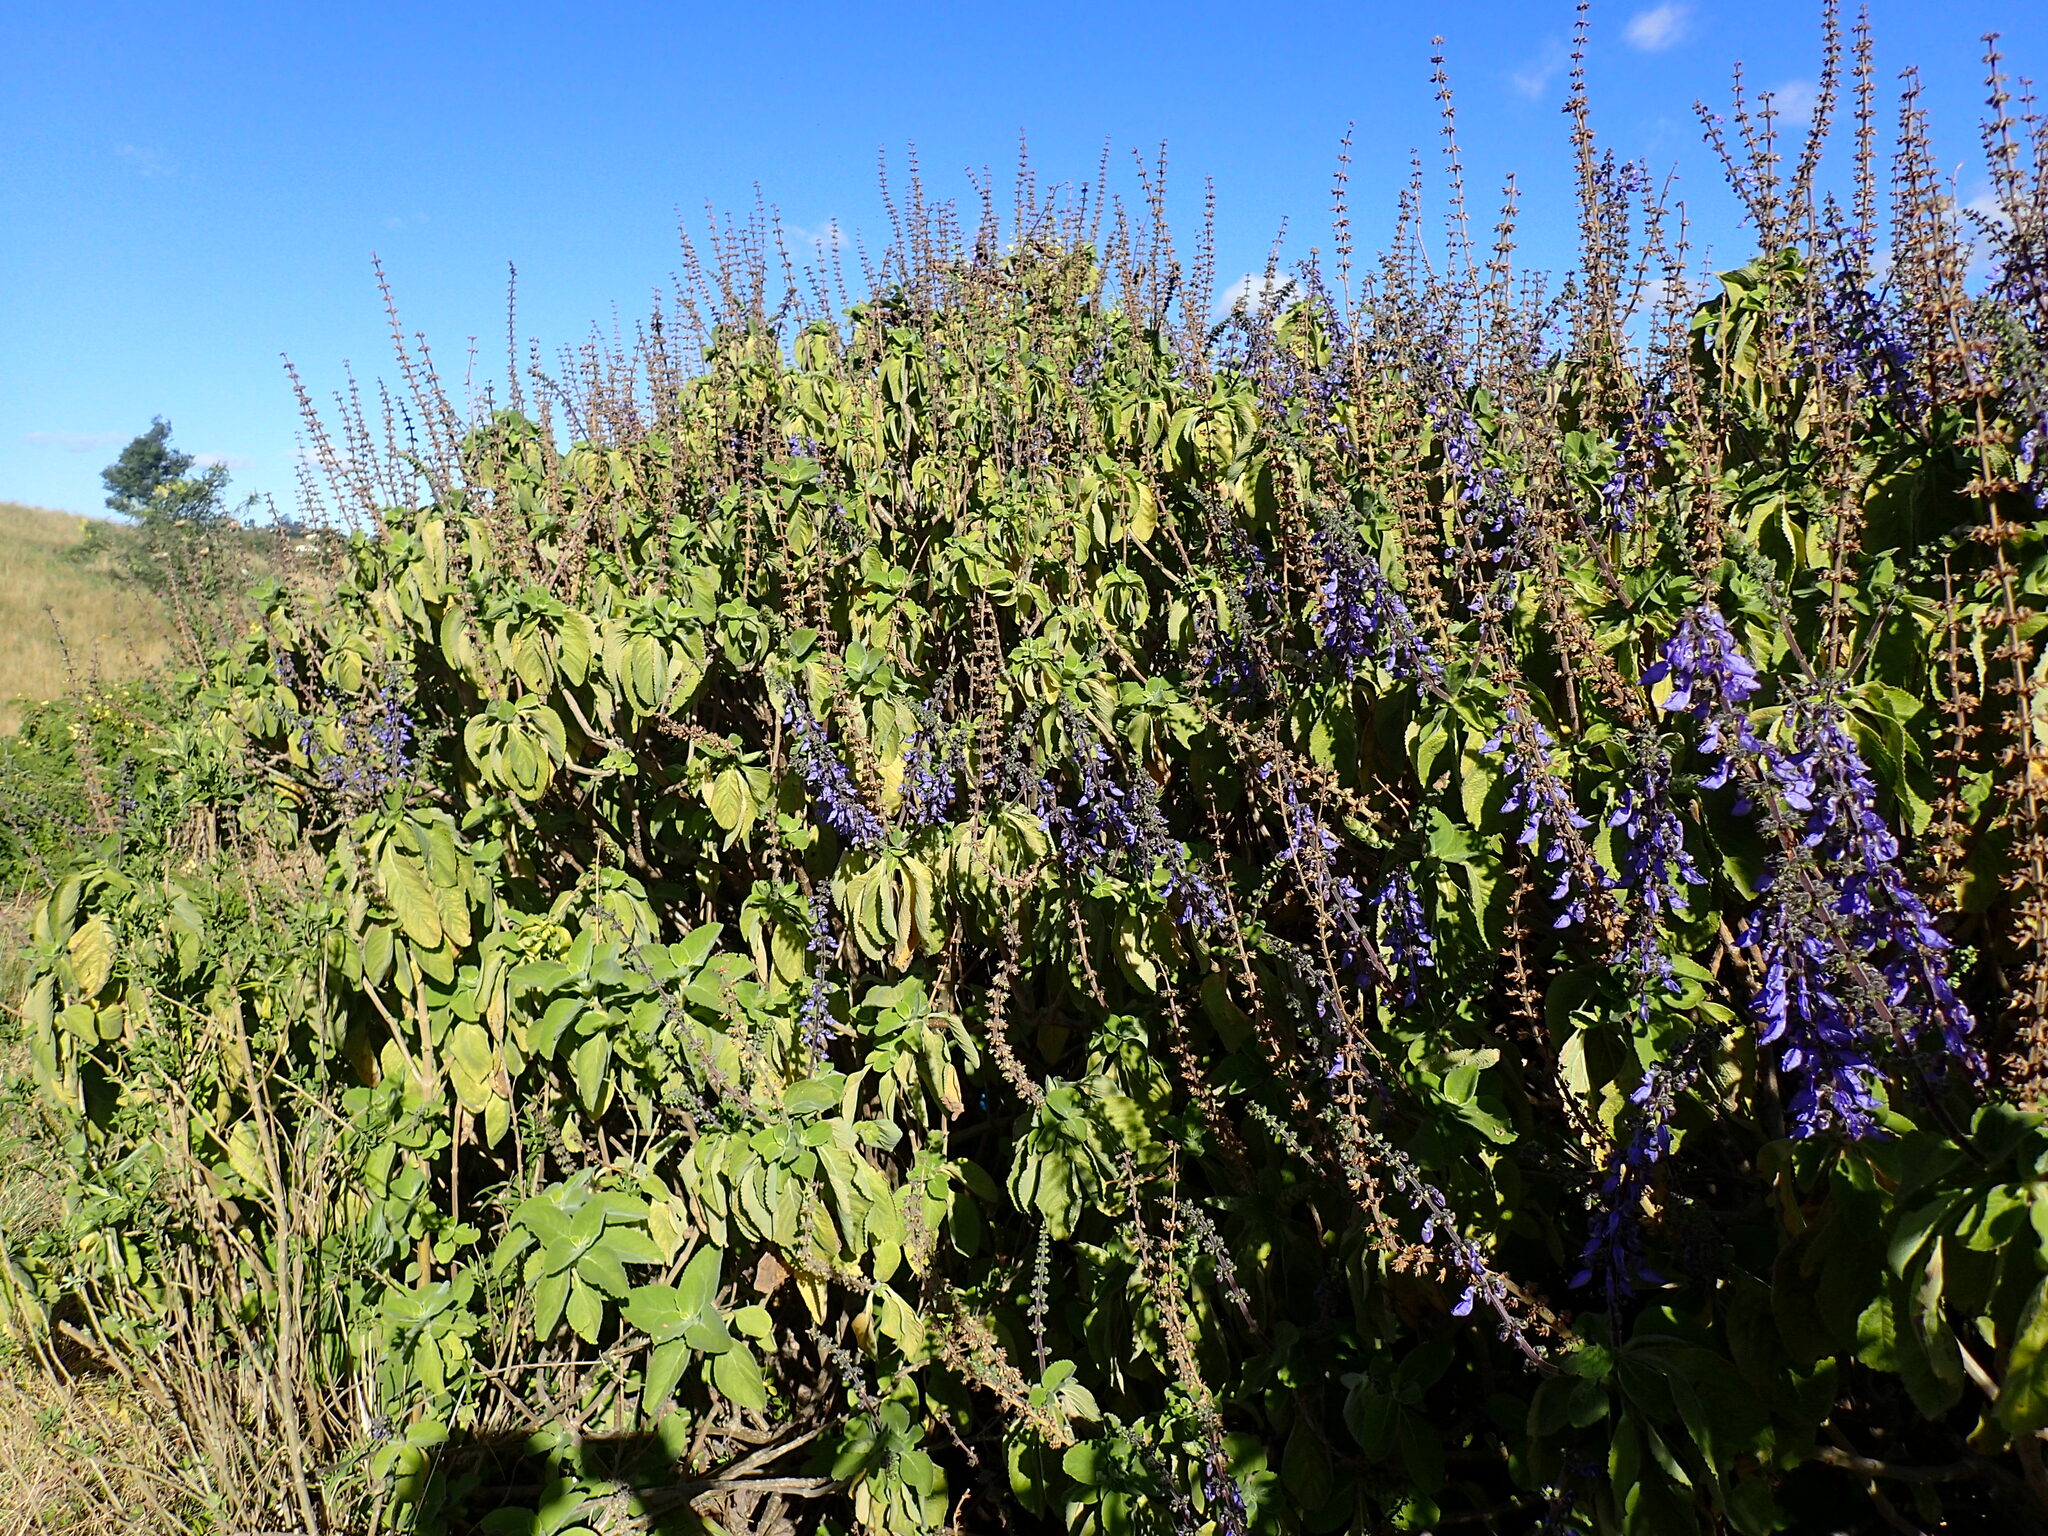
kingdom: Plantae
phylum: Tracheophyta
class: Magnoliopsida
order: Lamiales
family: Lamiaceae
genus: Coleus
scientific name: Coleus barbatus
